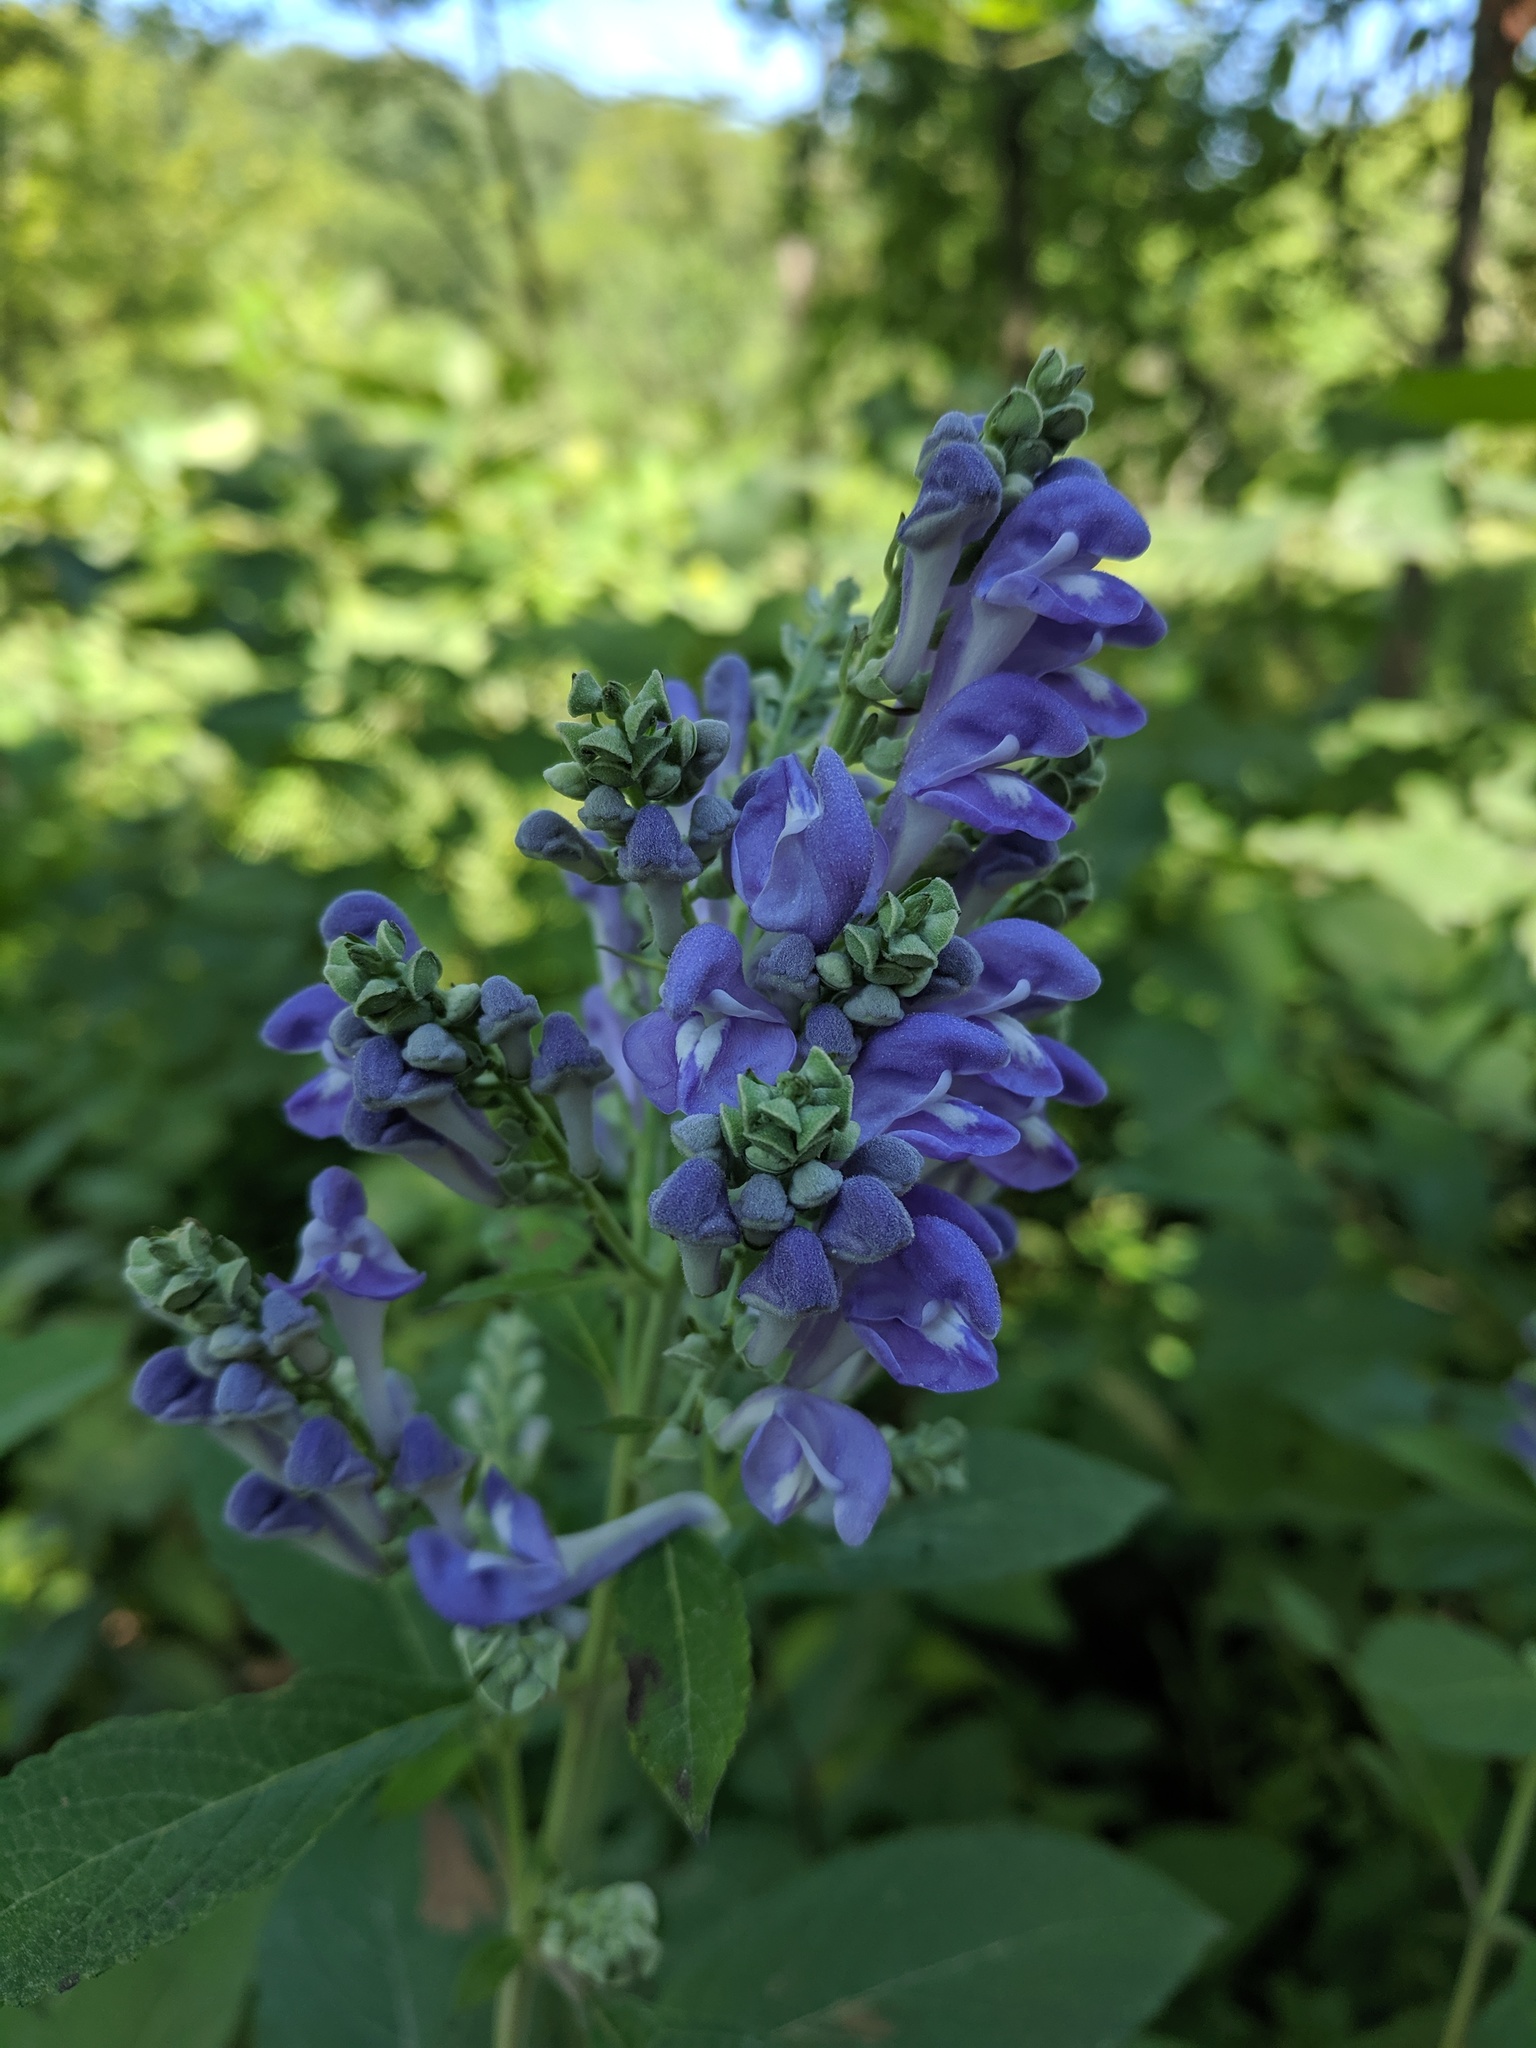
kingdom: Plantae
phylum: Tracheophyta
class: Magnoliopsida
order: Lamiales
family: Lamiaceae
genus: Scutellaria
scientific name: Scutellaria incana
